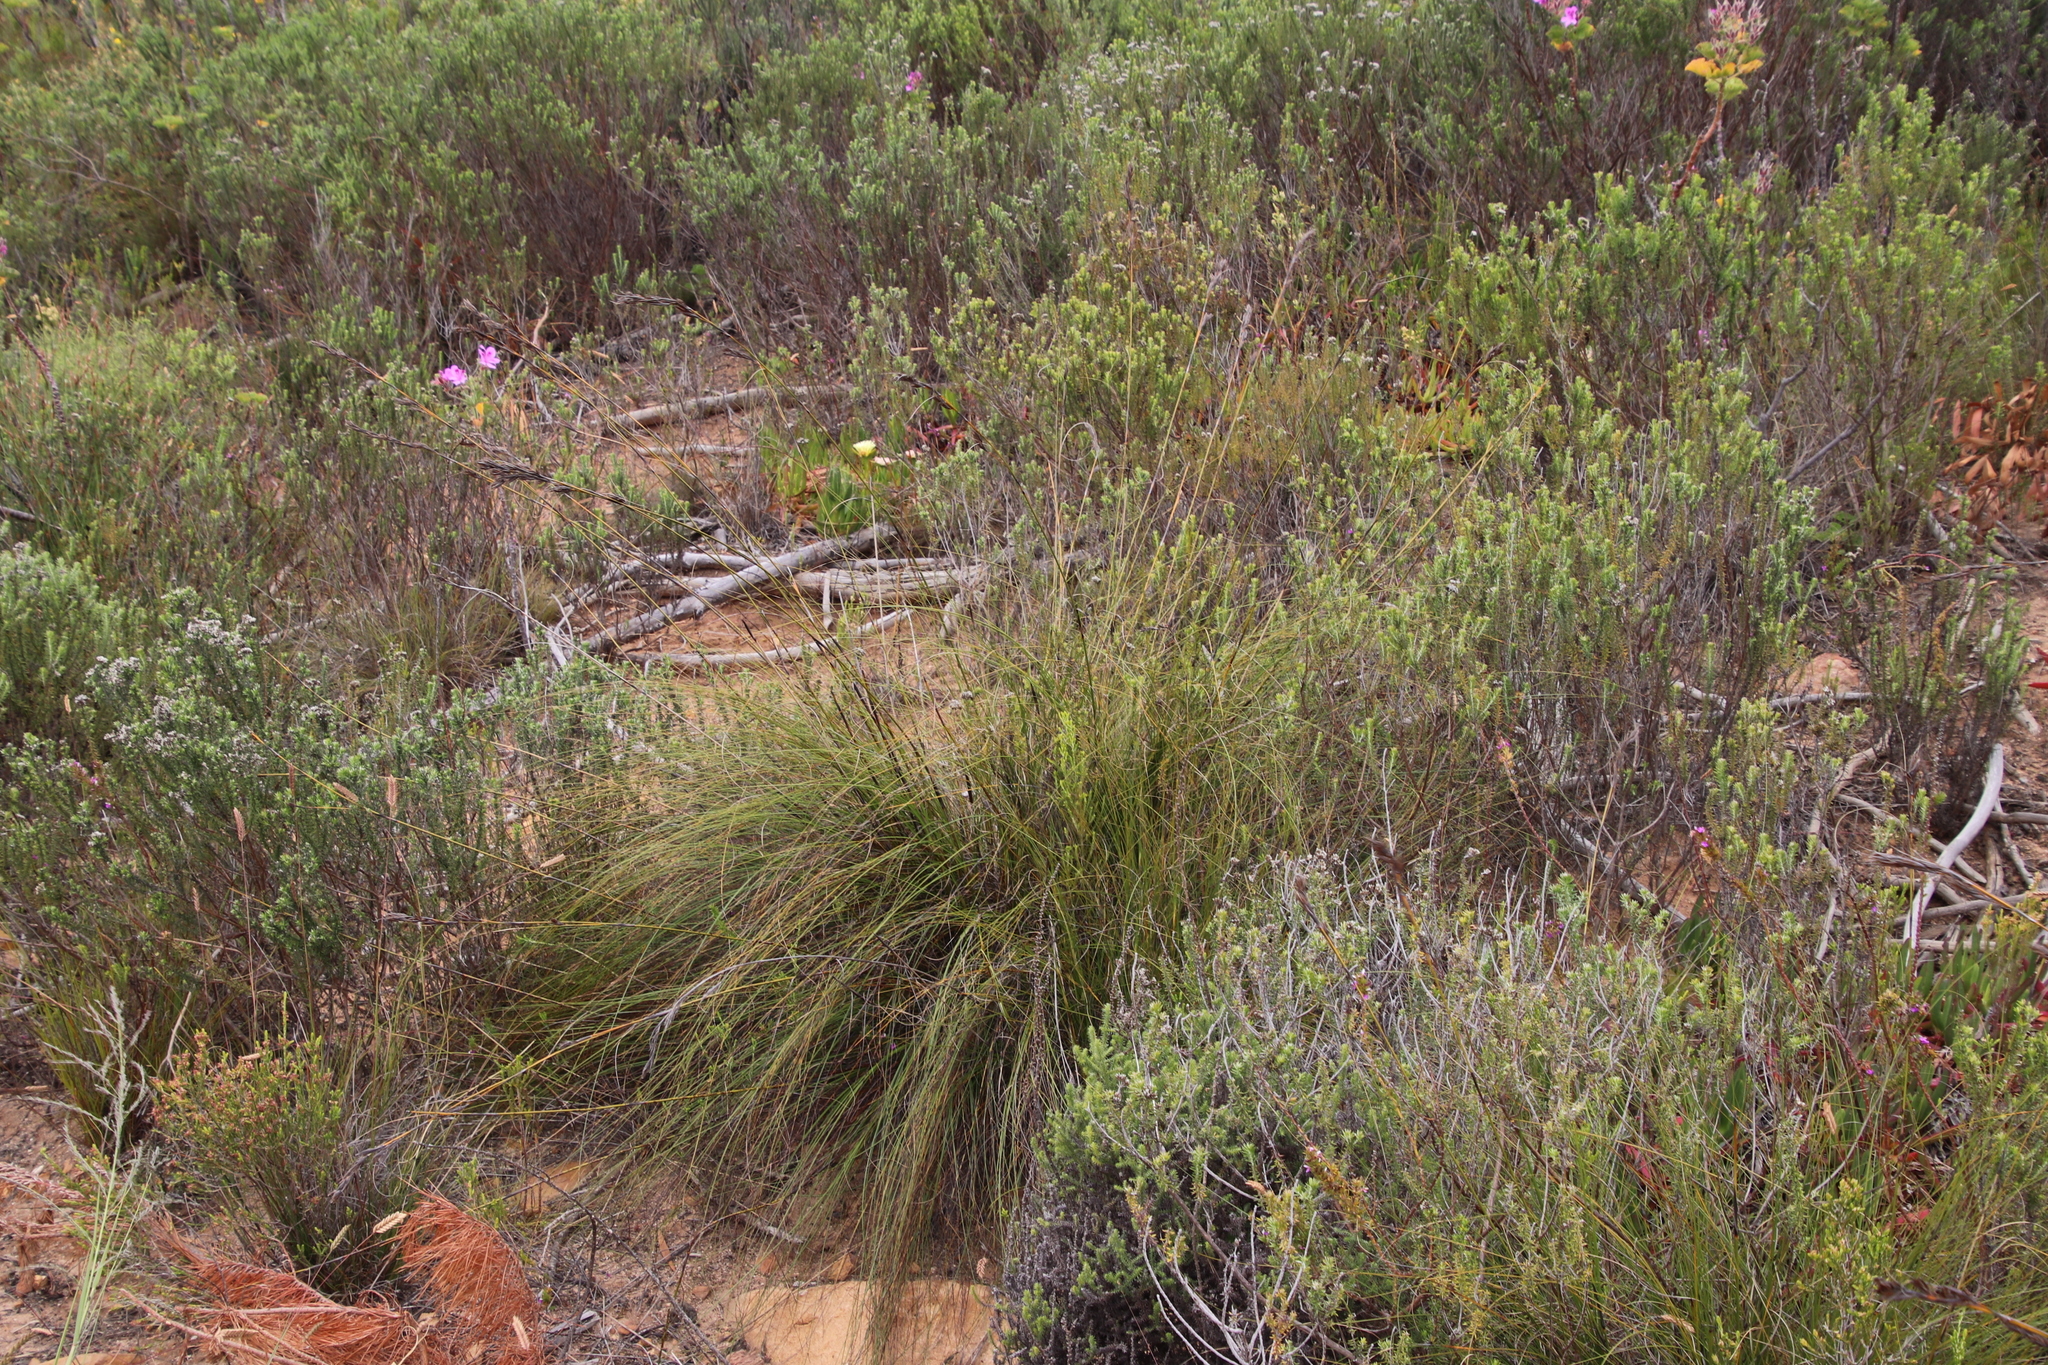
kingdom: Plantae
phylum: Tracheophyta
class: Liliopsida
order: Poales
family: Cyperaceae
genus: Tetraria
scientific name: Tetraria ustulata
